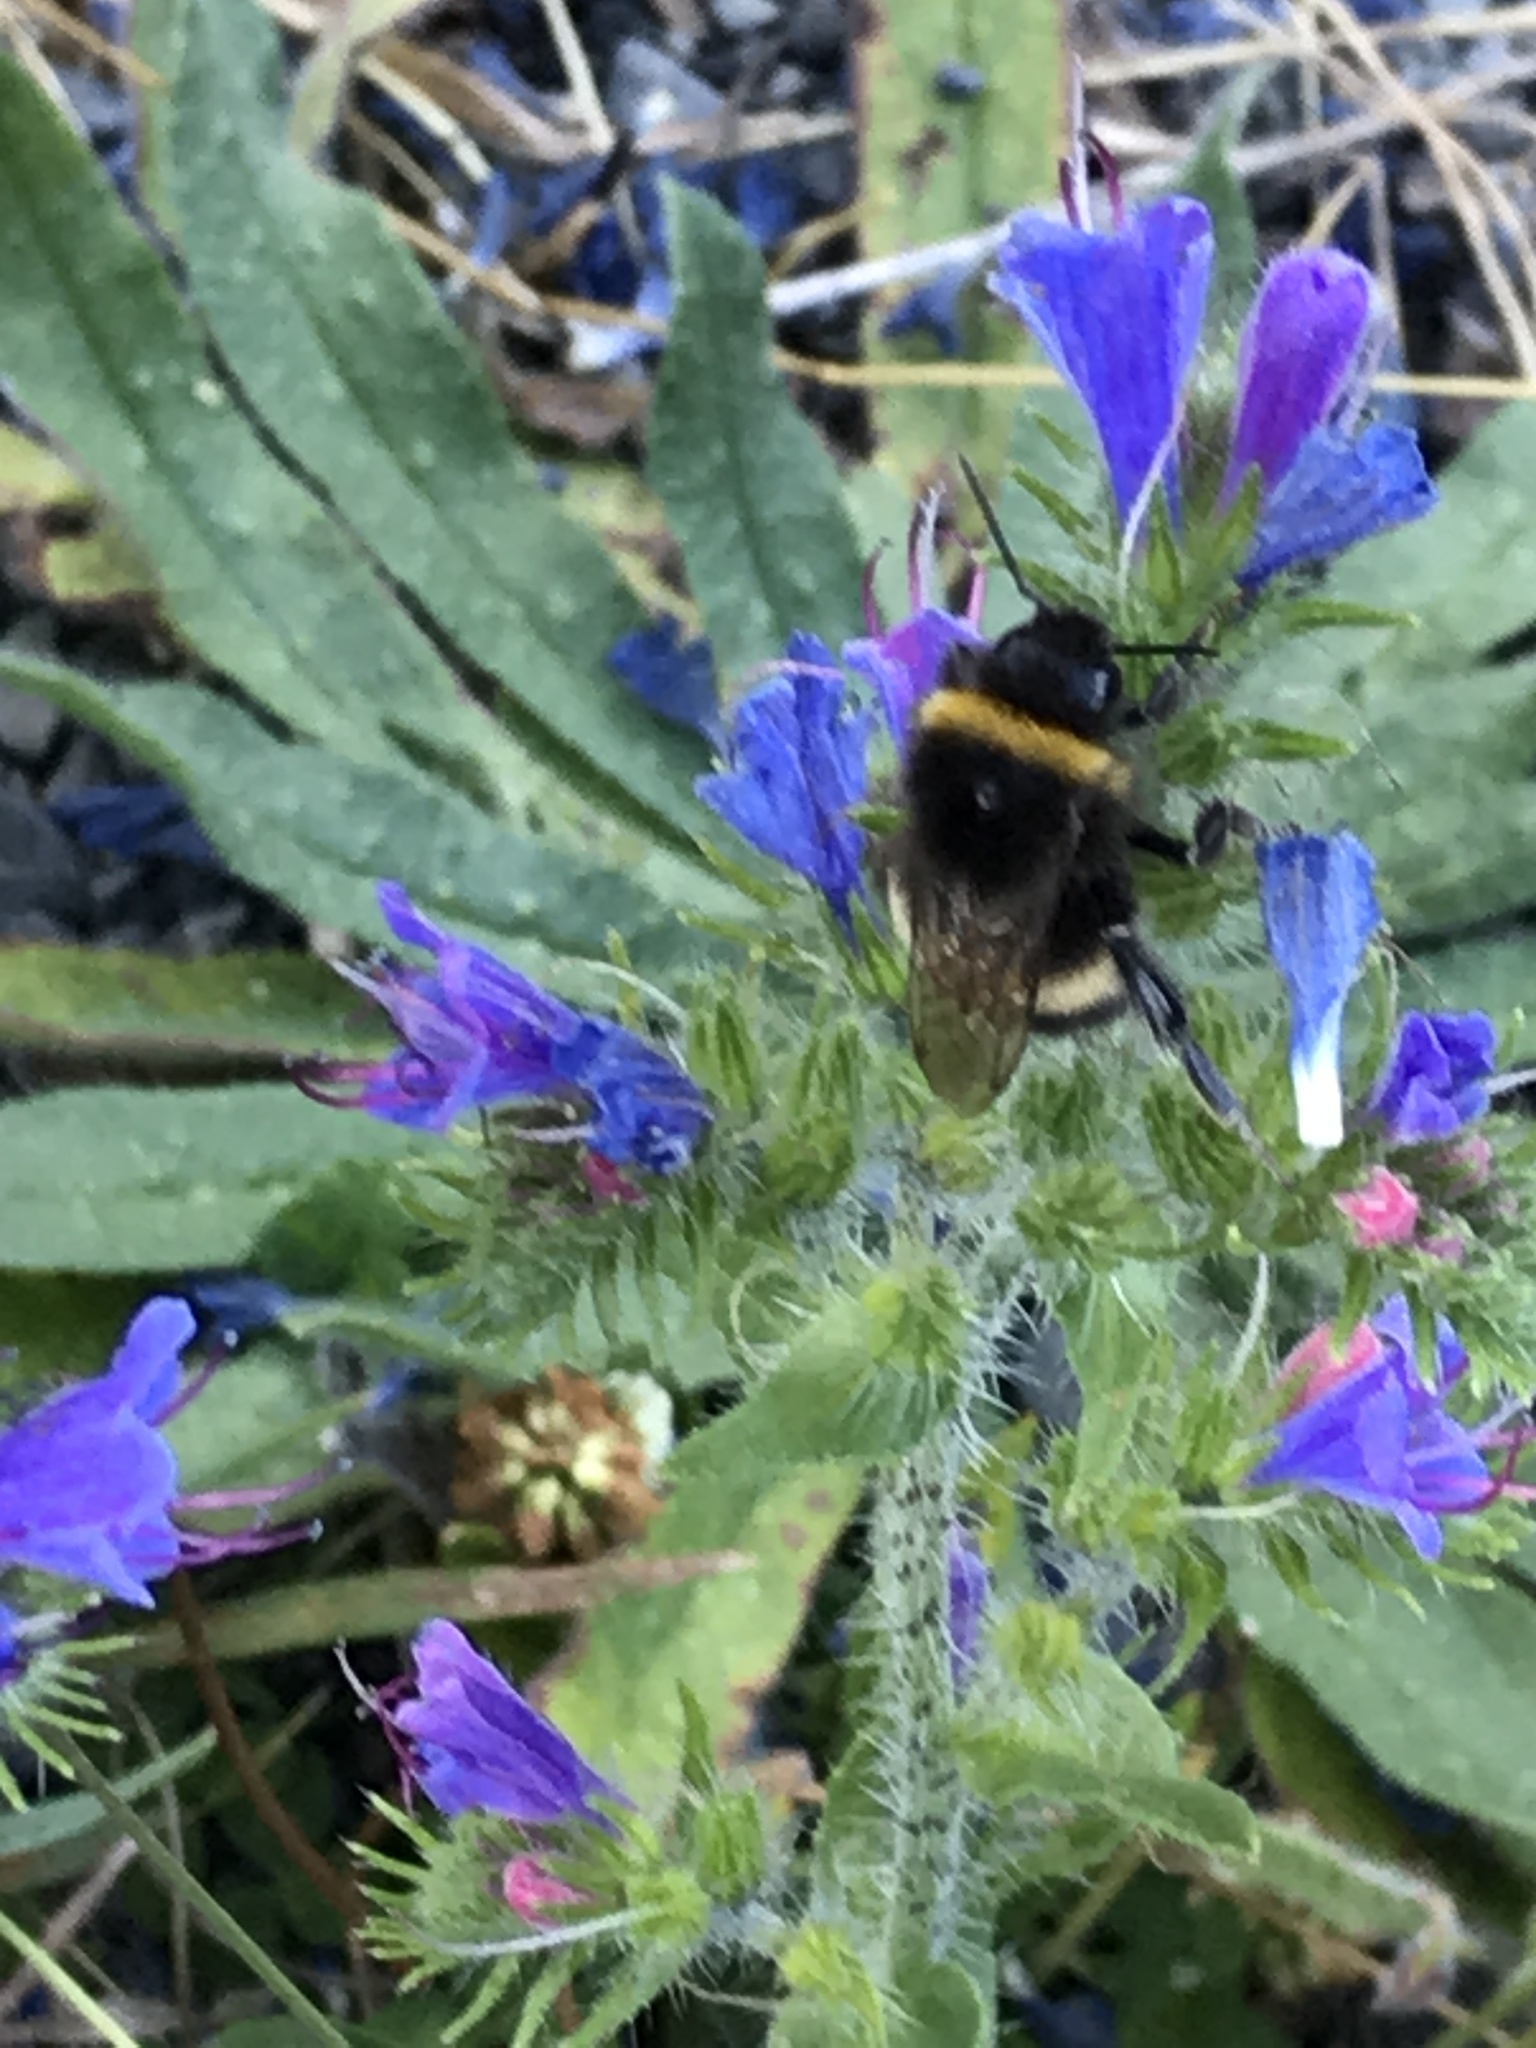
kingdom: Animalia
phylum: Arthropoda
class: Insecta
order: Hymenoptera
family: Apidae
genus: Bombus
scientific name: Bombus terrestris
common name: Buff-tailed bumblebee
